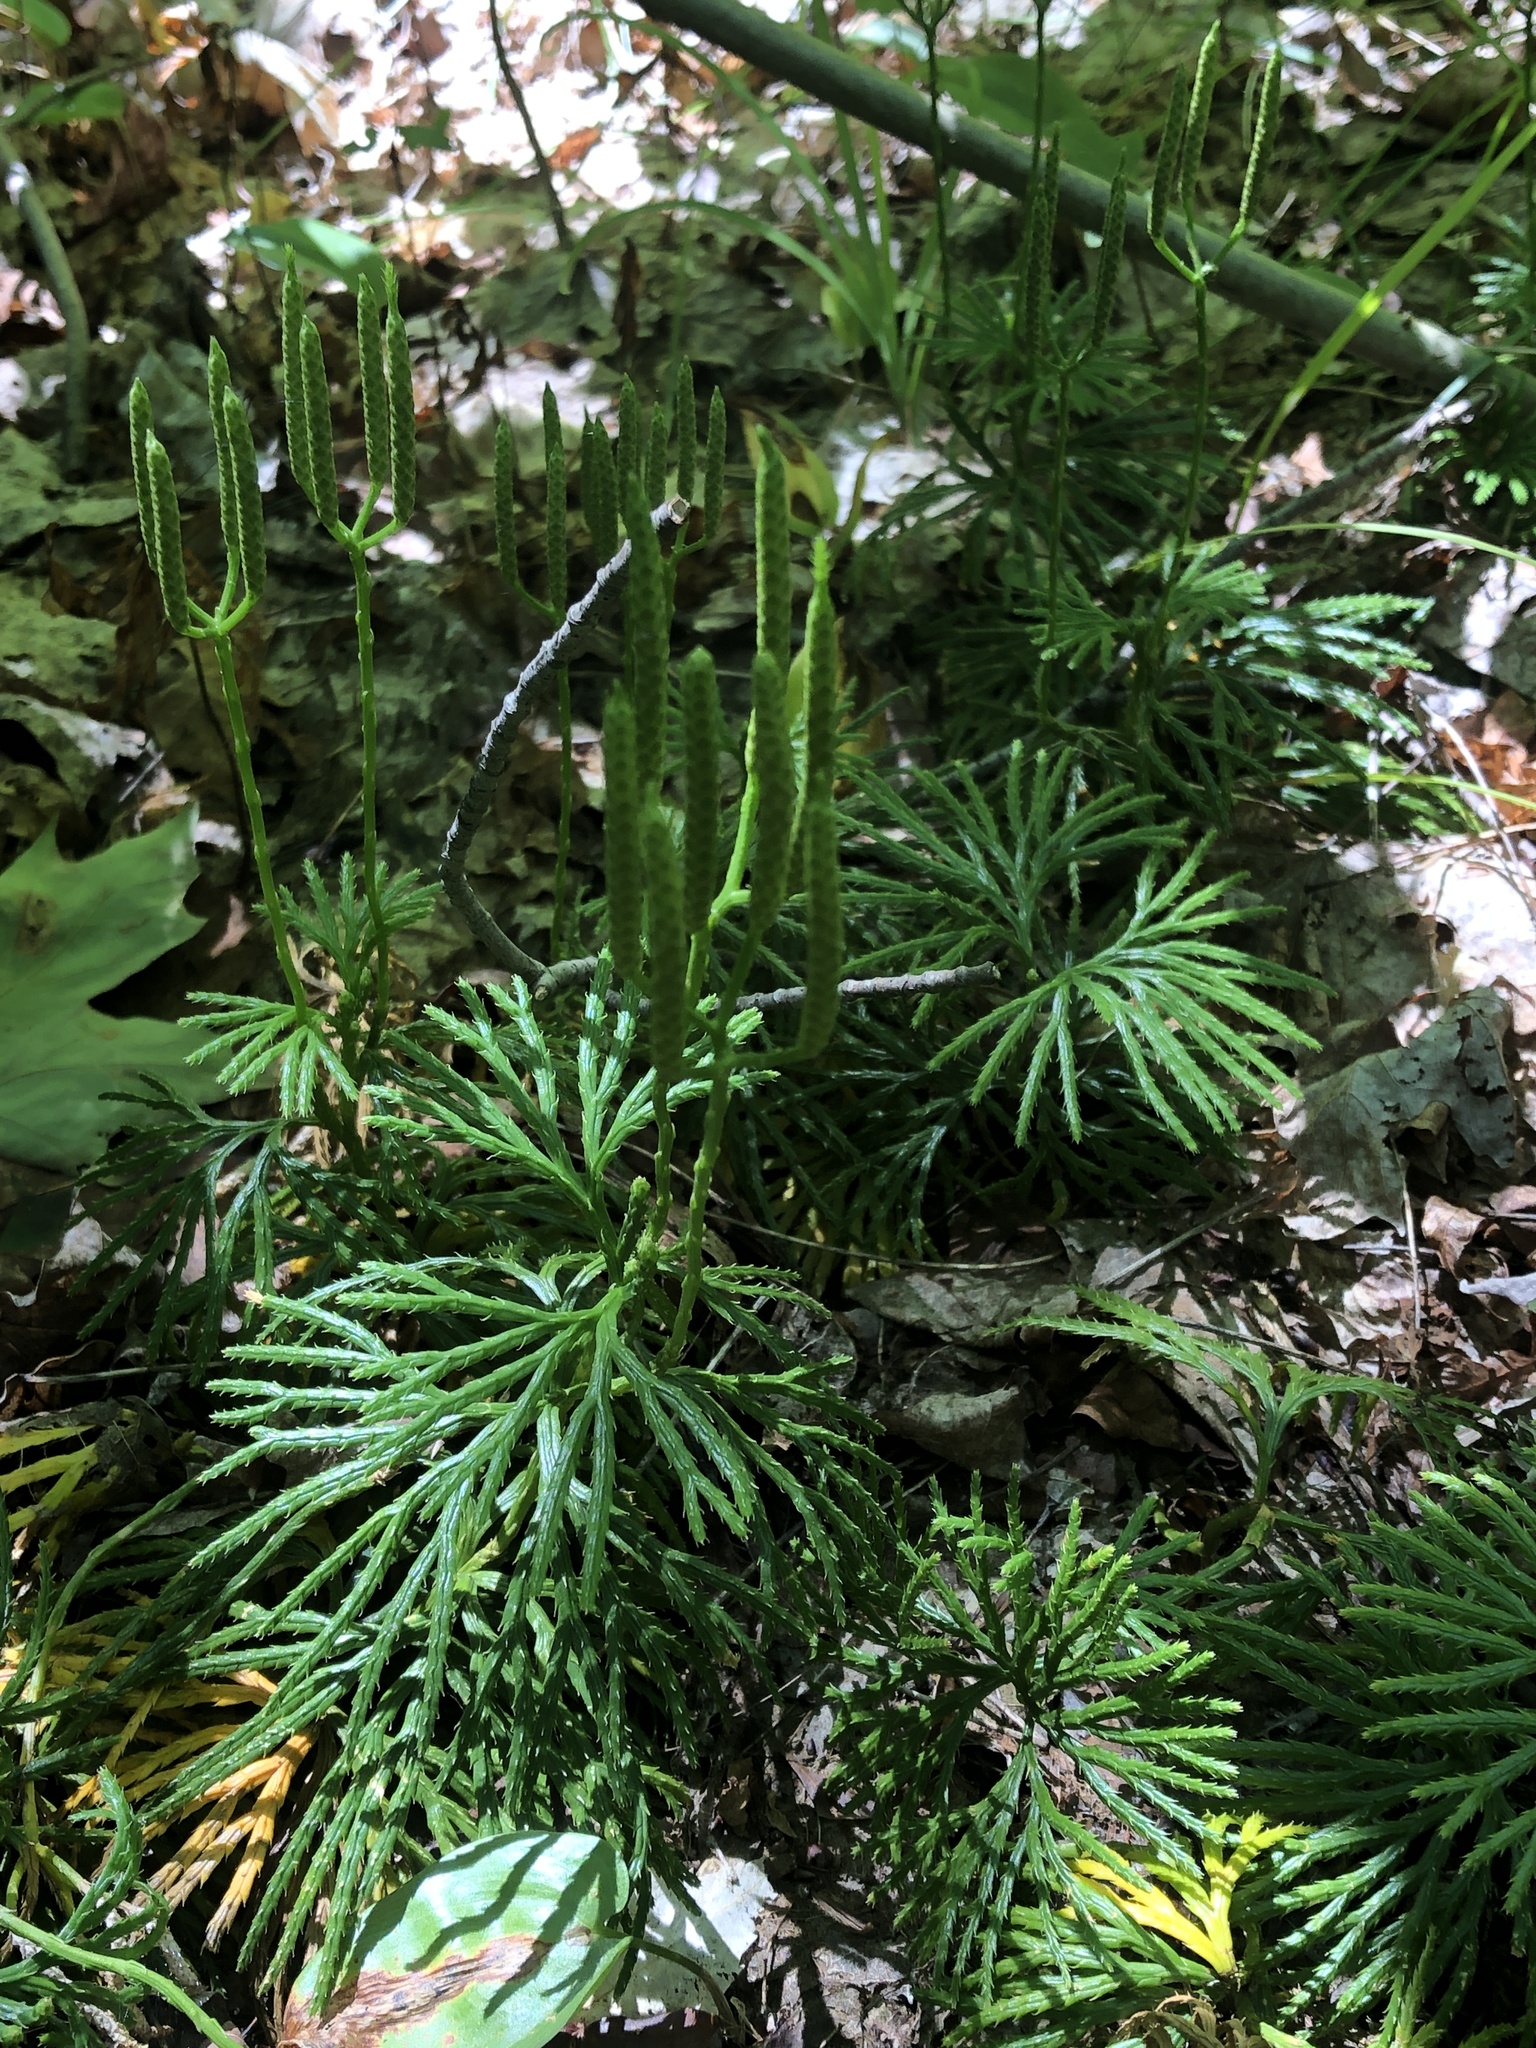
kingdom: Plantae
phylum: Tracheophyta
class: Lycopodiopsida
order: Lycopodiales
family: Lycopodiaceae
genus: Diphasiastrum
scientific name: Diphasiastrum digitatum
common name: Southern running-pine
